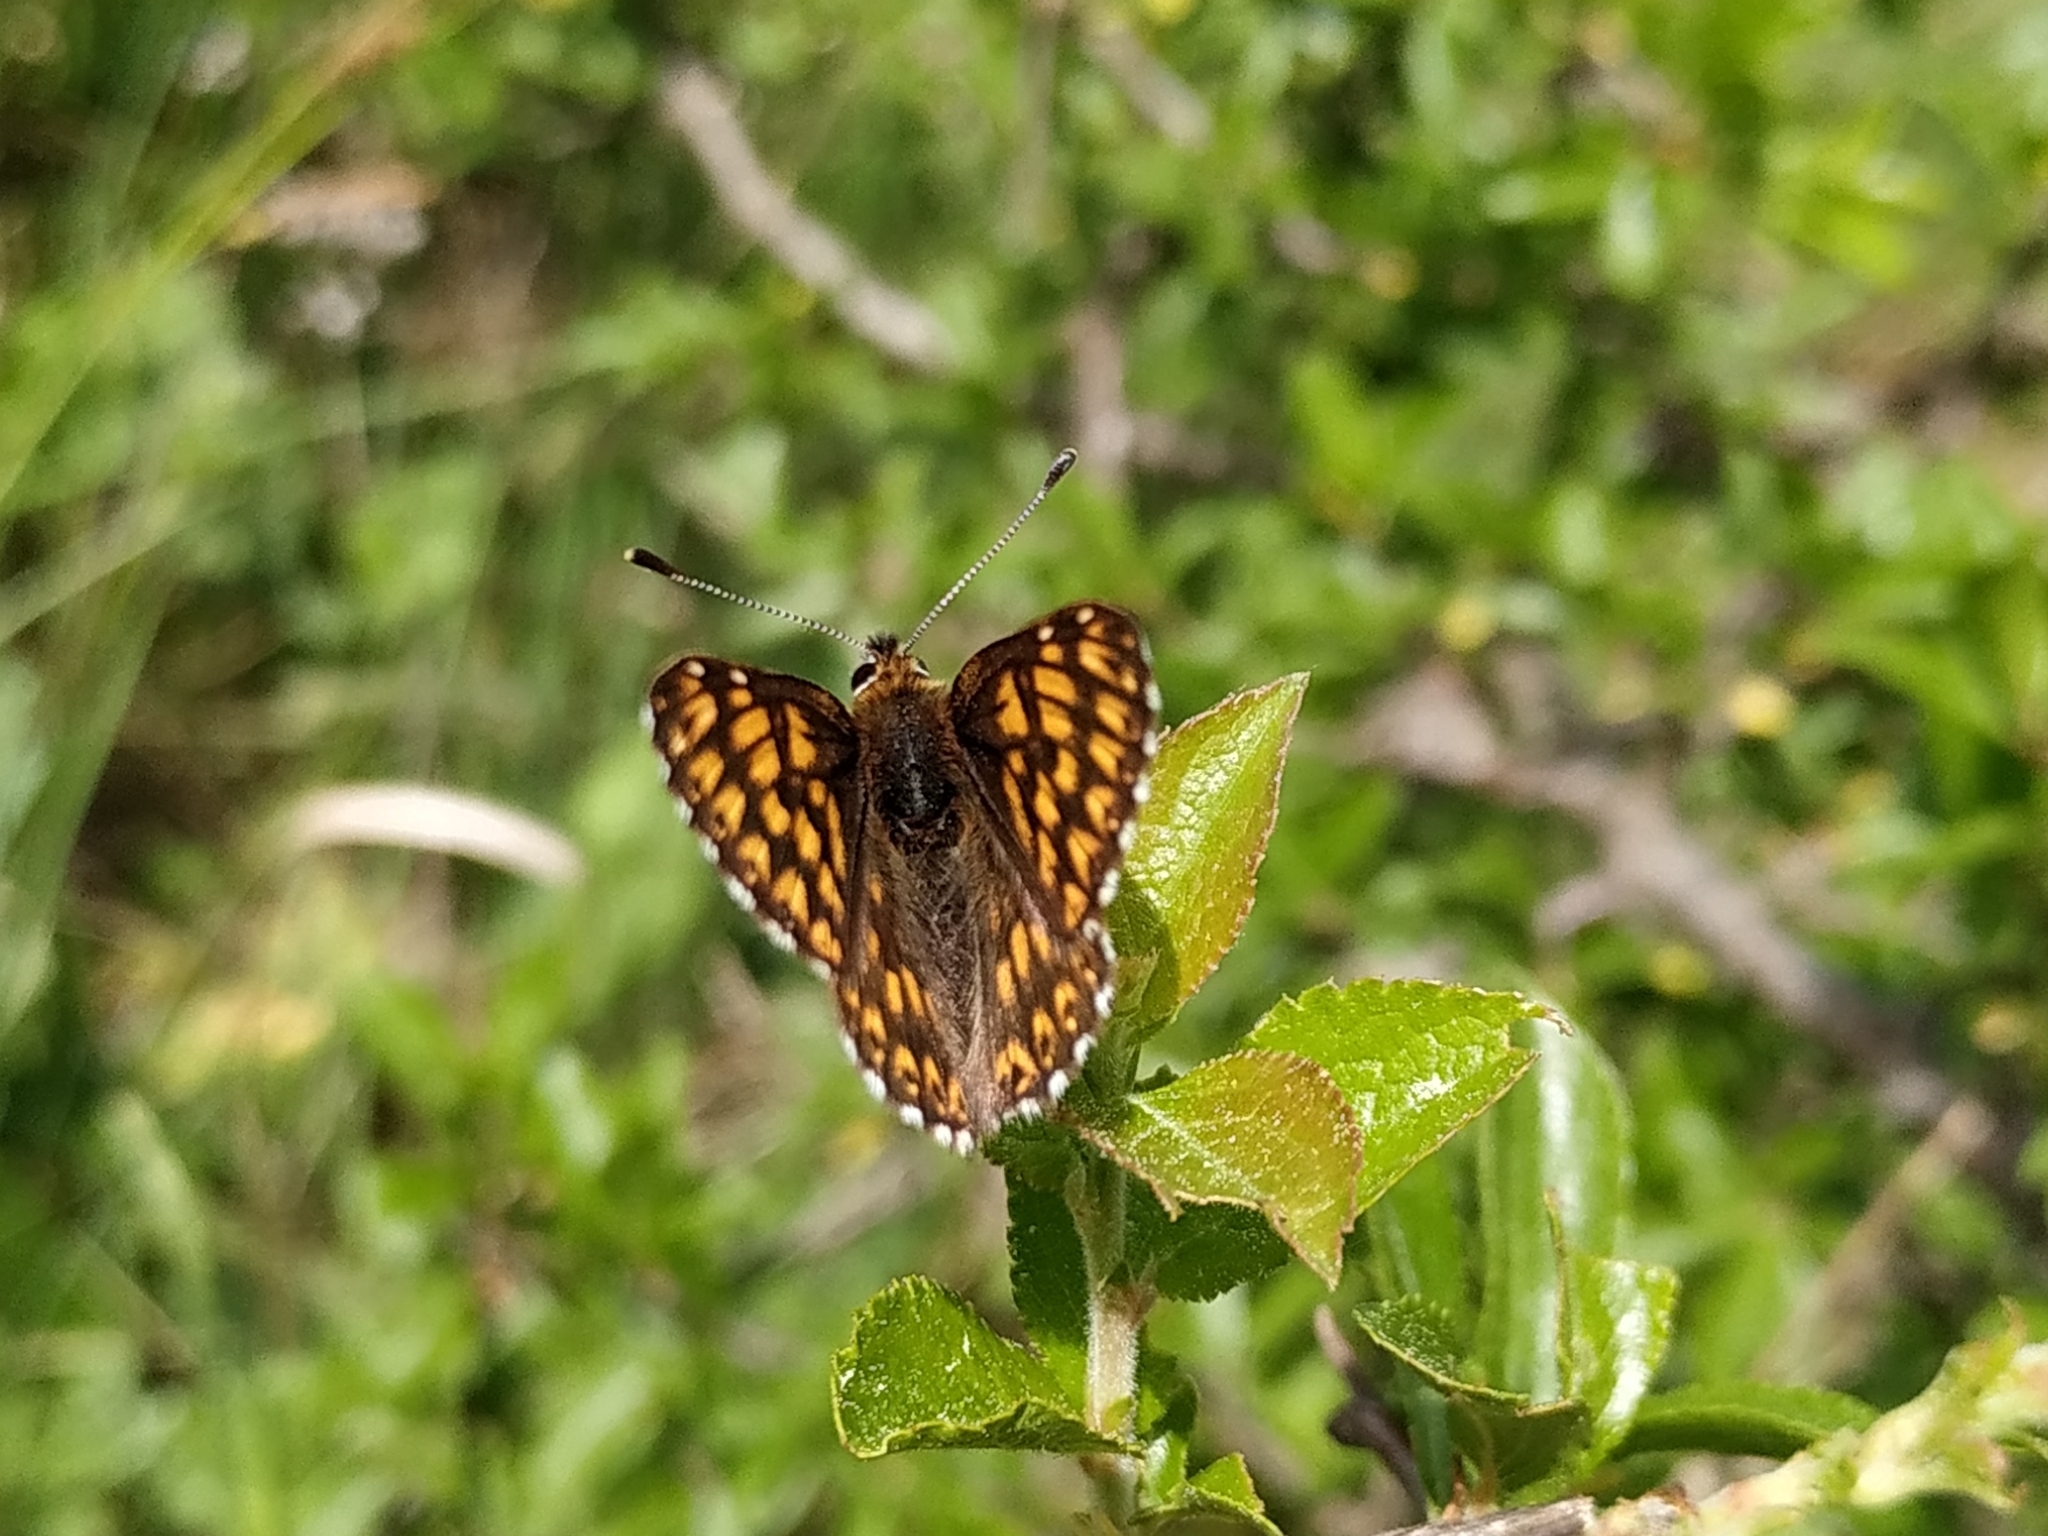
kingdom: Animalia
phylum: Arthropoda
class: Insecta
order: Lepidoptera
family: Riodinidae
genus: Hamearis
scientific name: Hamearis lucina
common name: Duke of burgundy fritillary
